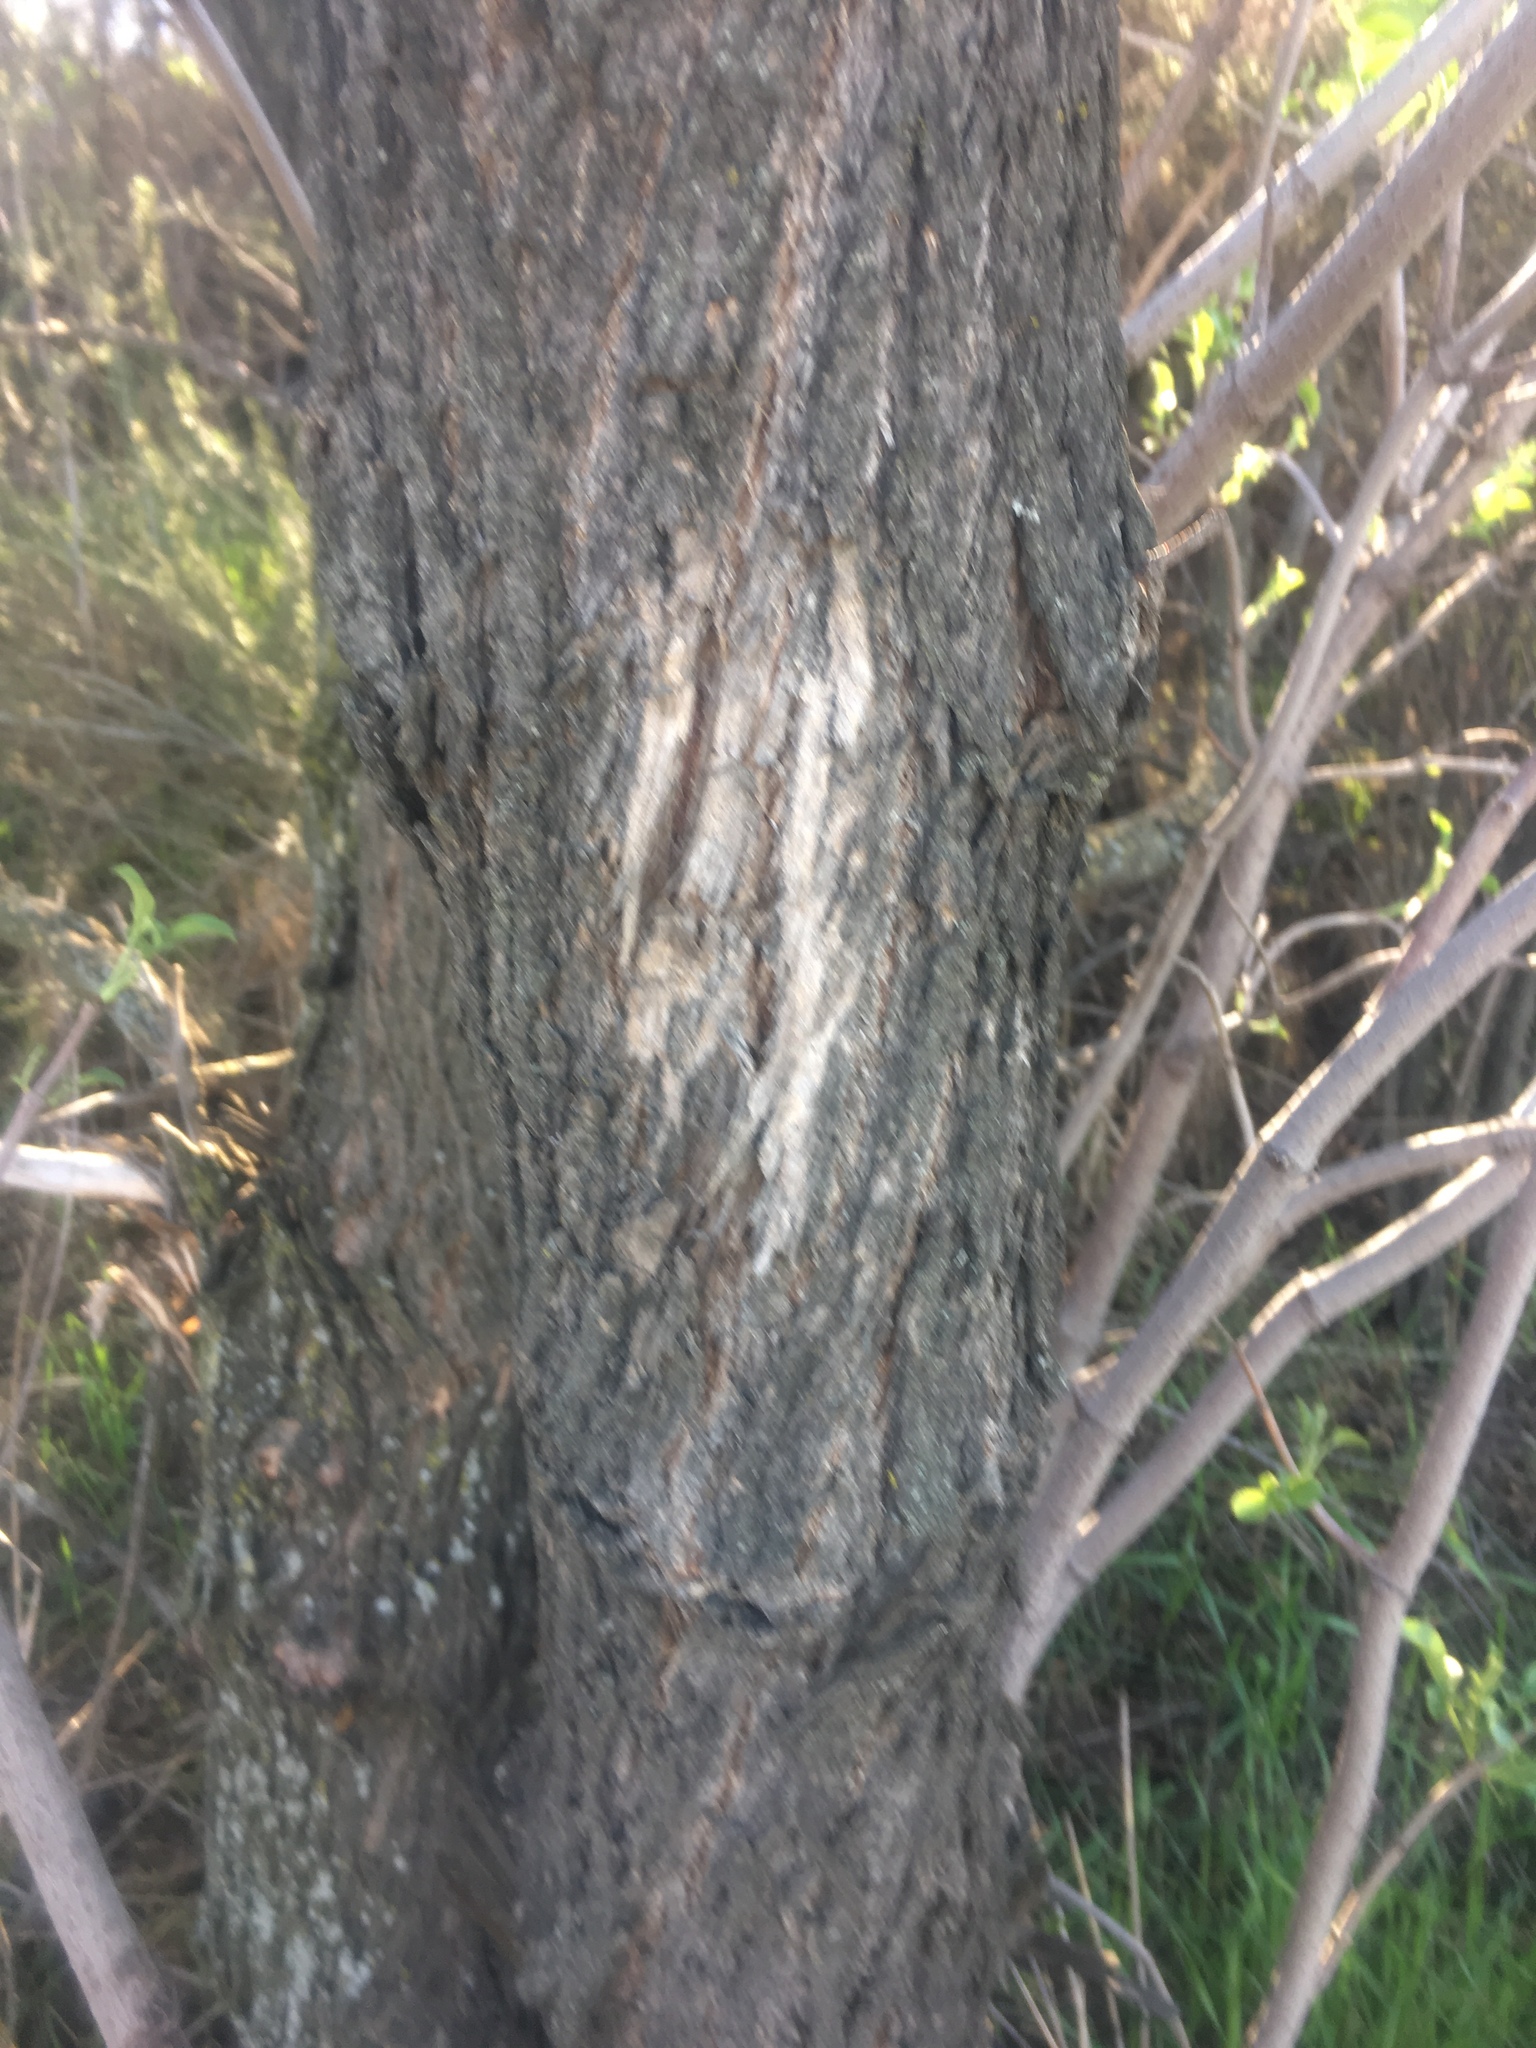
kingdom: Plantae
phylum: Tracheophyta
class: Magnoliopsida
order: Dipsacales
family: Viburnaceae
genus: Sambucus
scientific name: Sambucus cerulea
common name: Blue elder
